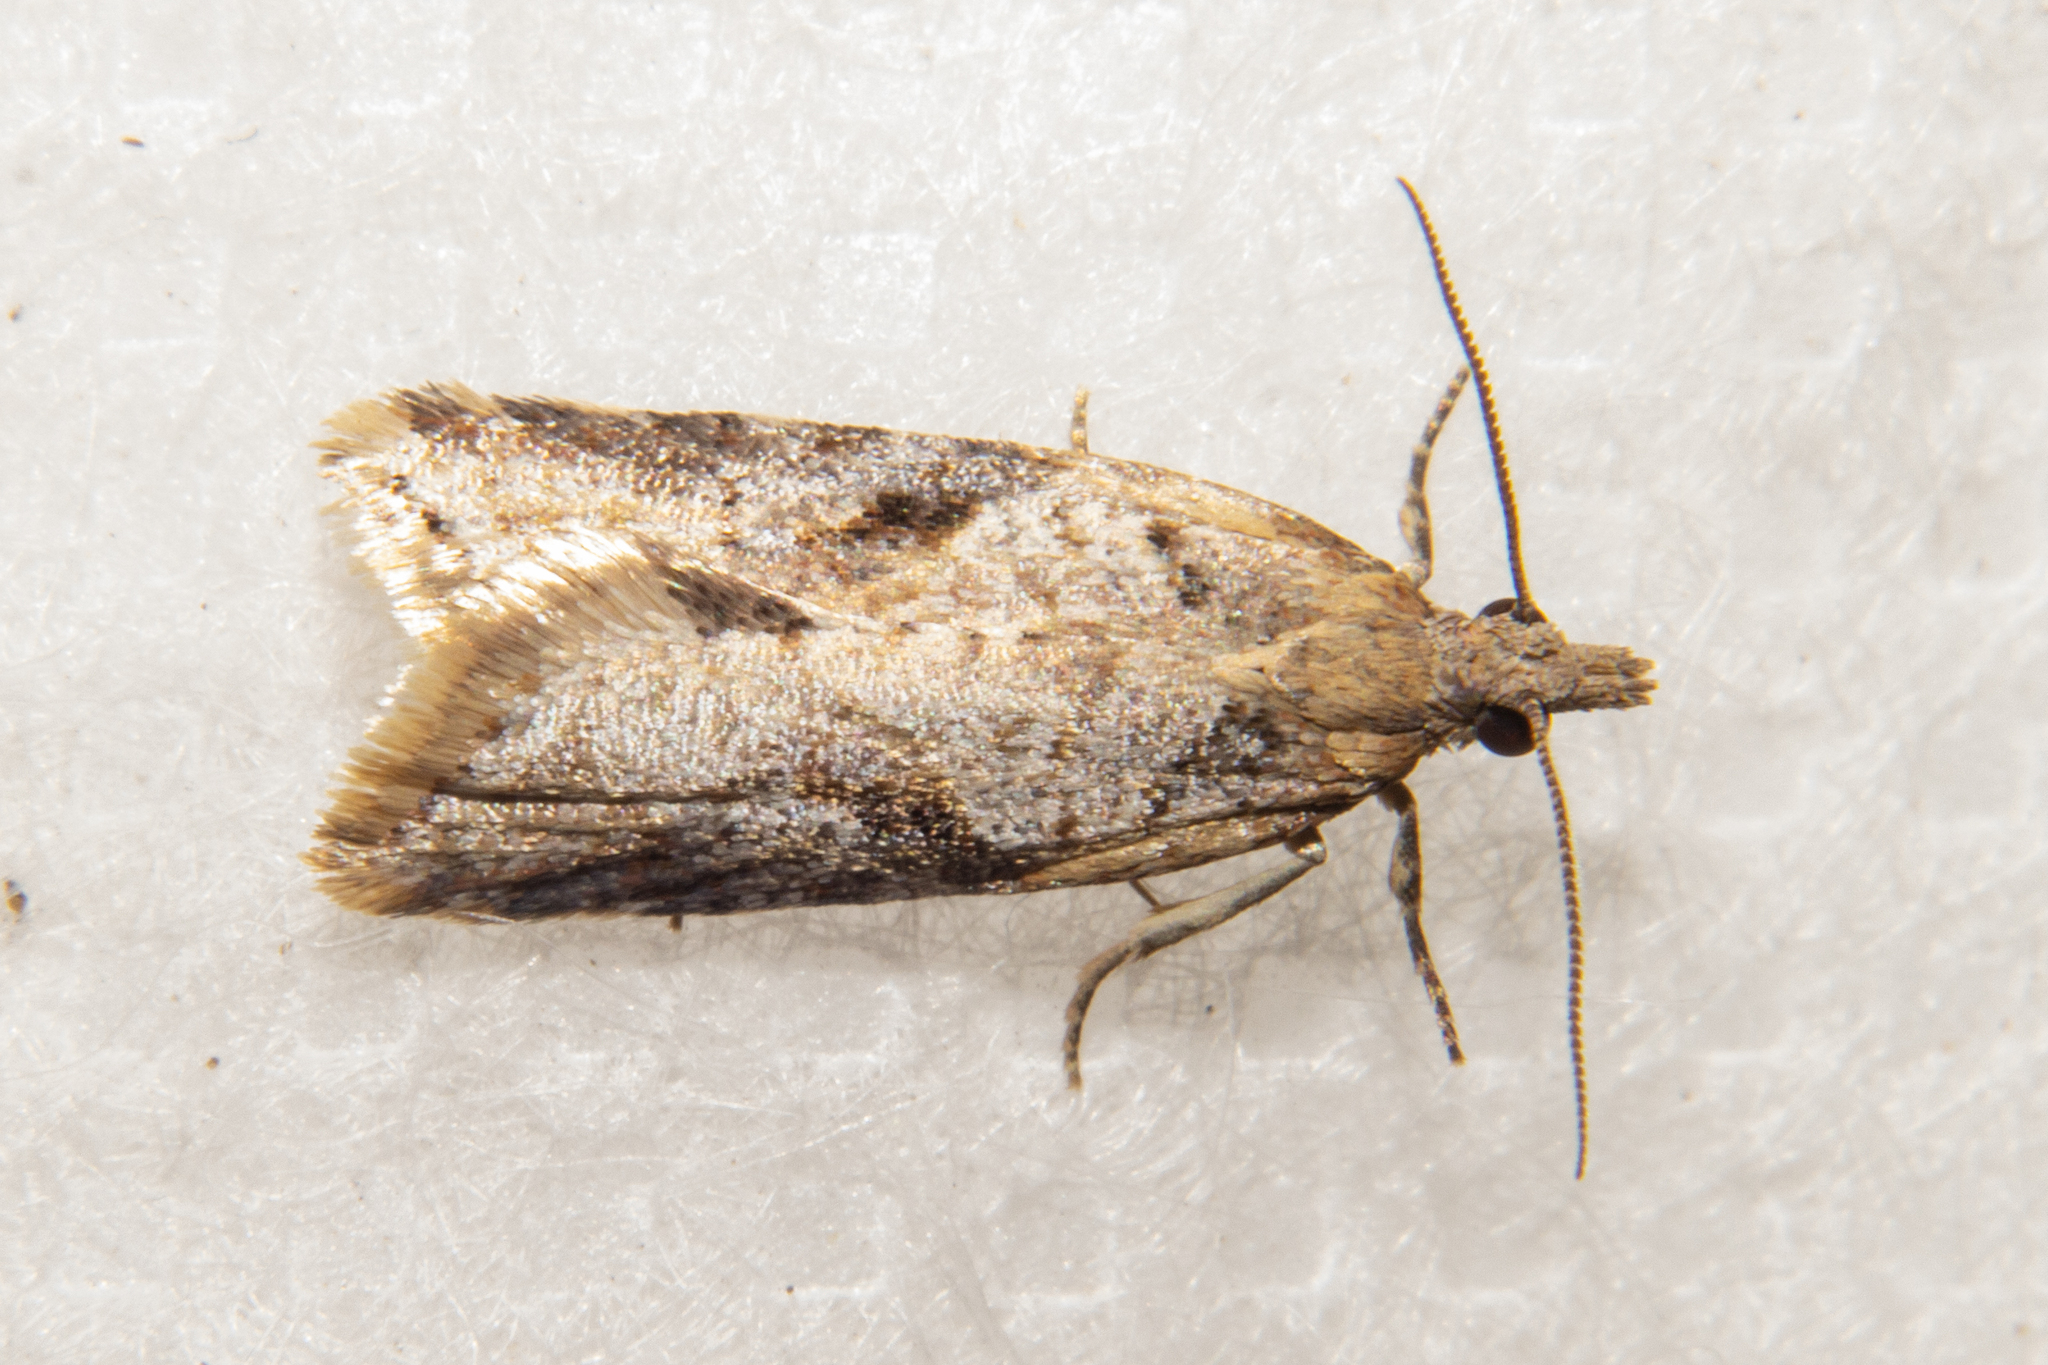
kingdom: Animalia
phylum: Arthropoda
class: Insecta
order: Lepidoptera
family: Tortricidae
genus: Capua
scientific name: Capua semiferana
